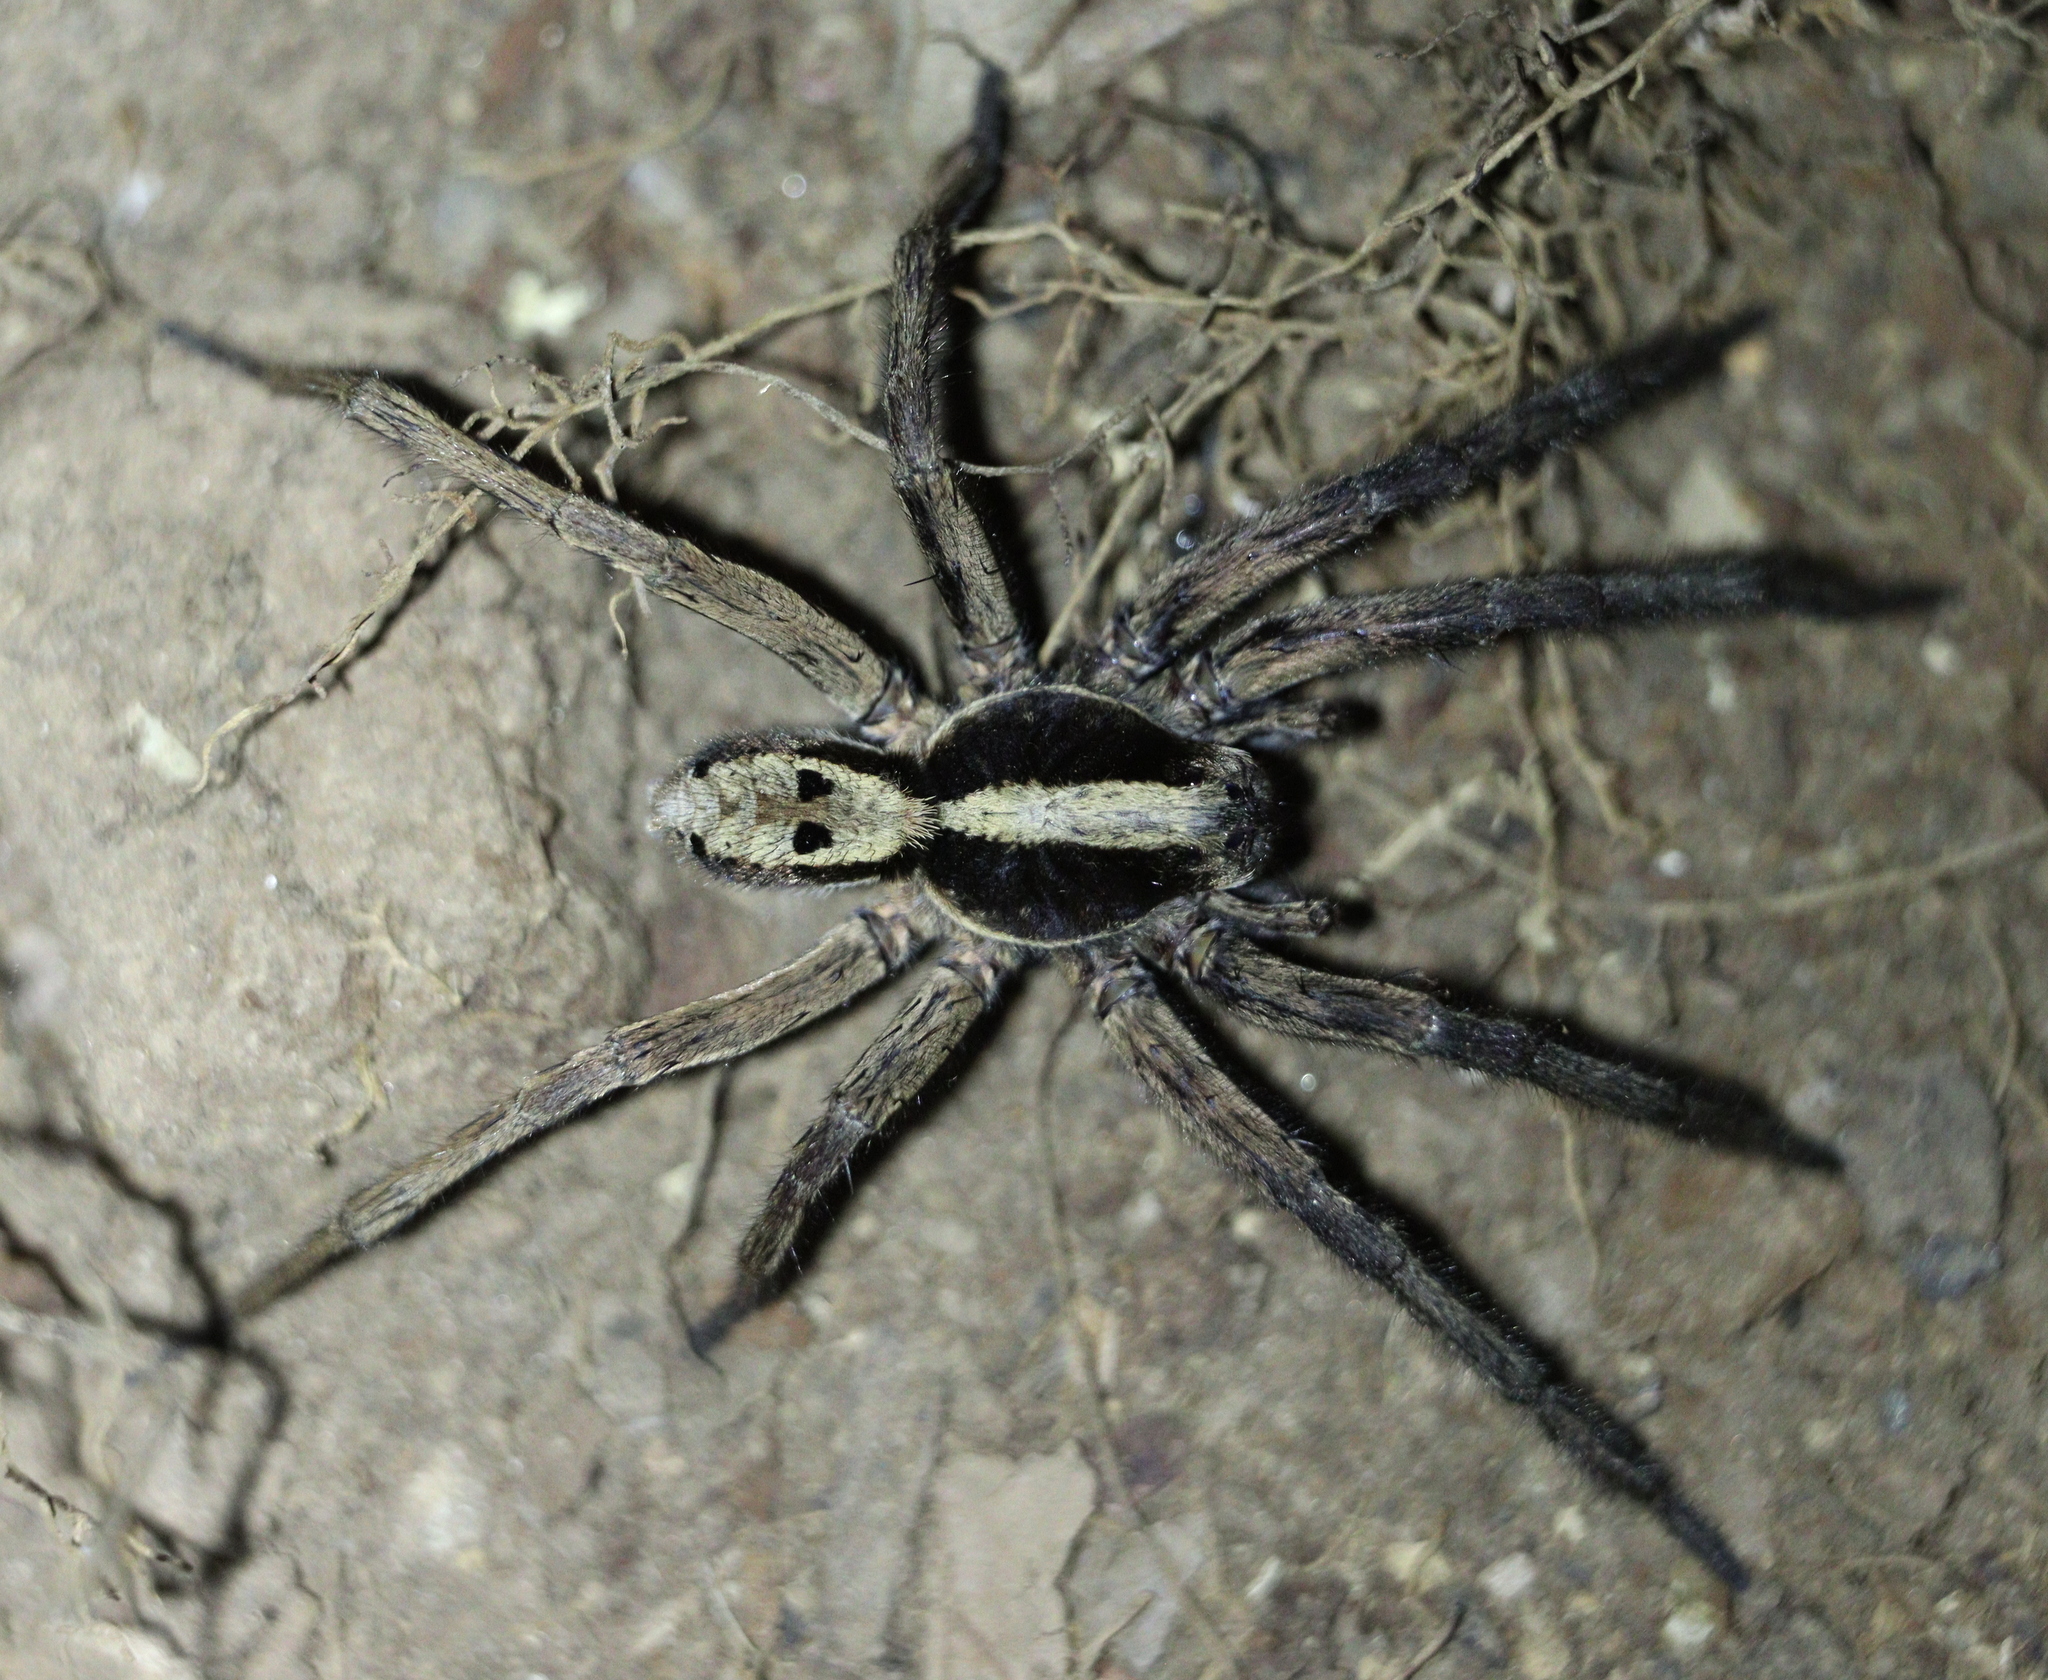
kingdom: Animalia
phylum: Arthropoda
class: Arachnida
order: Araneae
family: Lycosidae
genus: Hogna
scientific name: Hogna gumia
